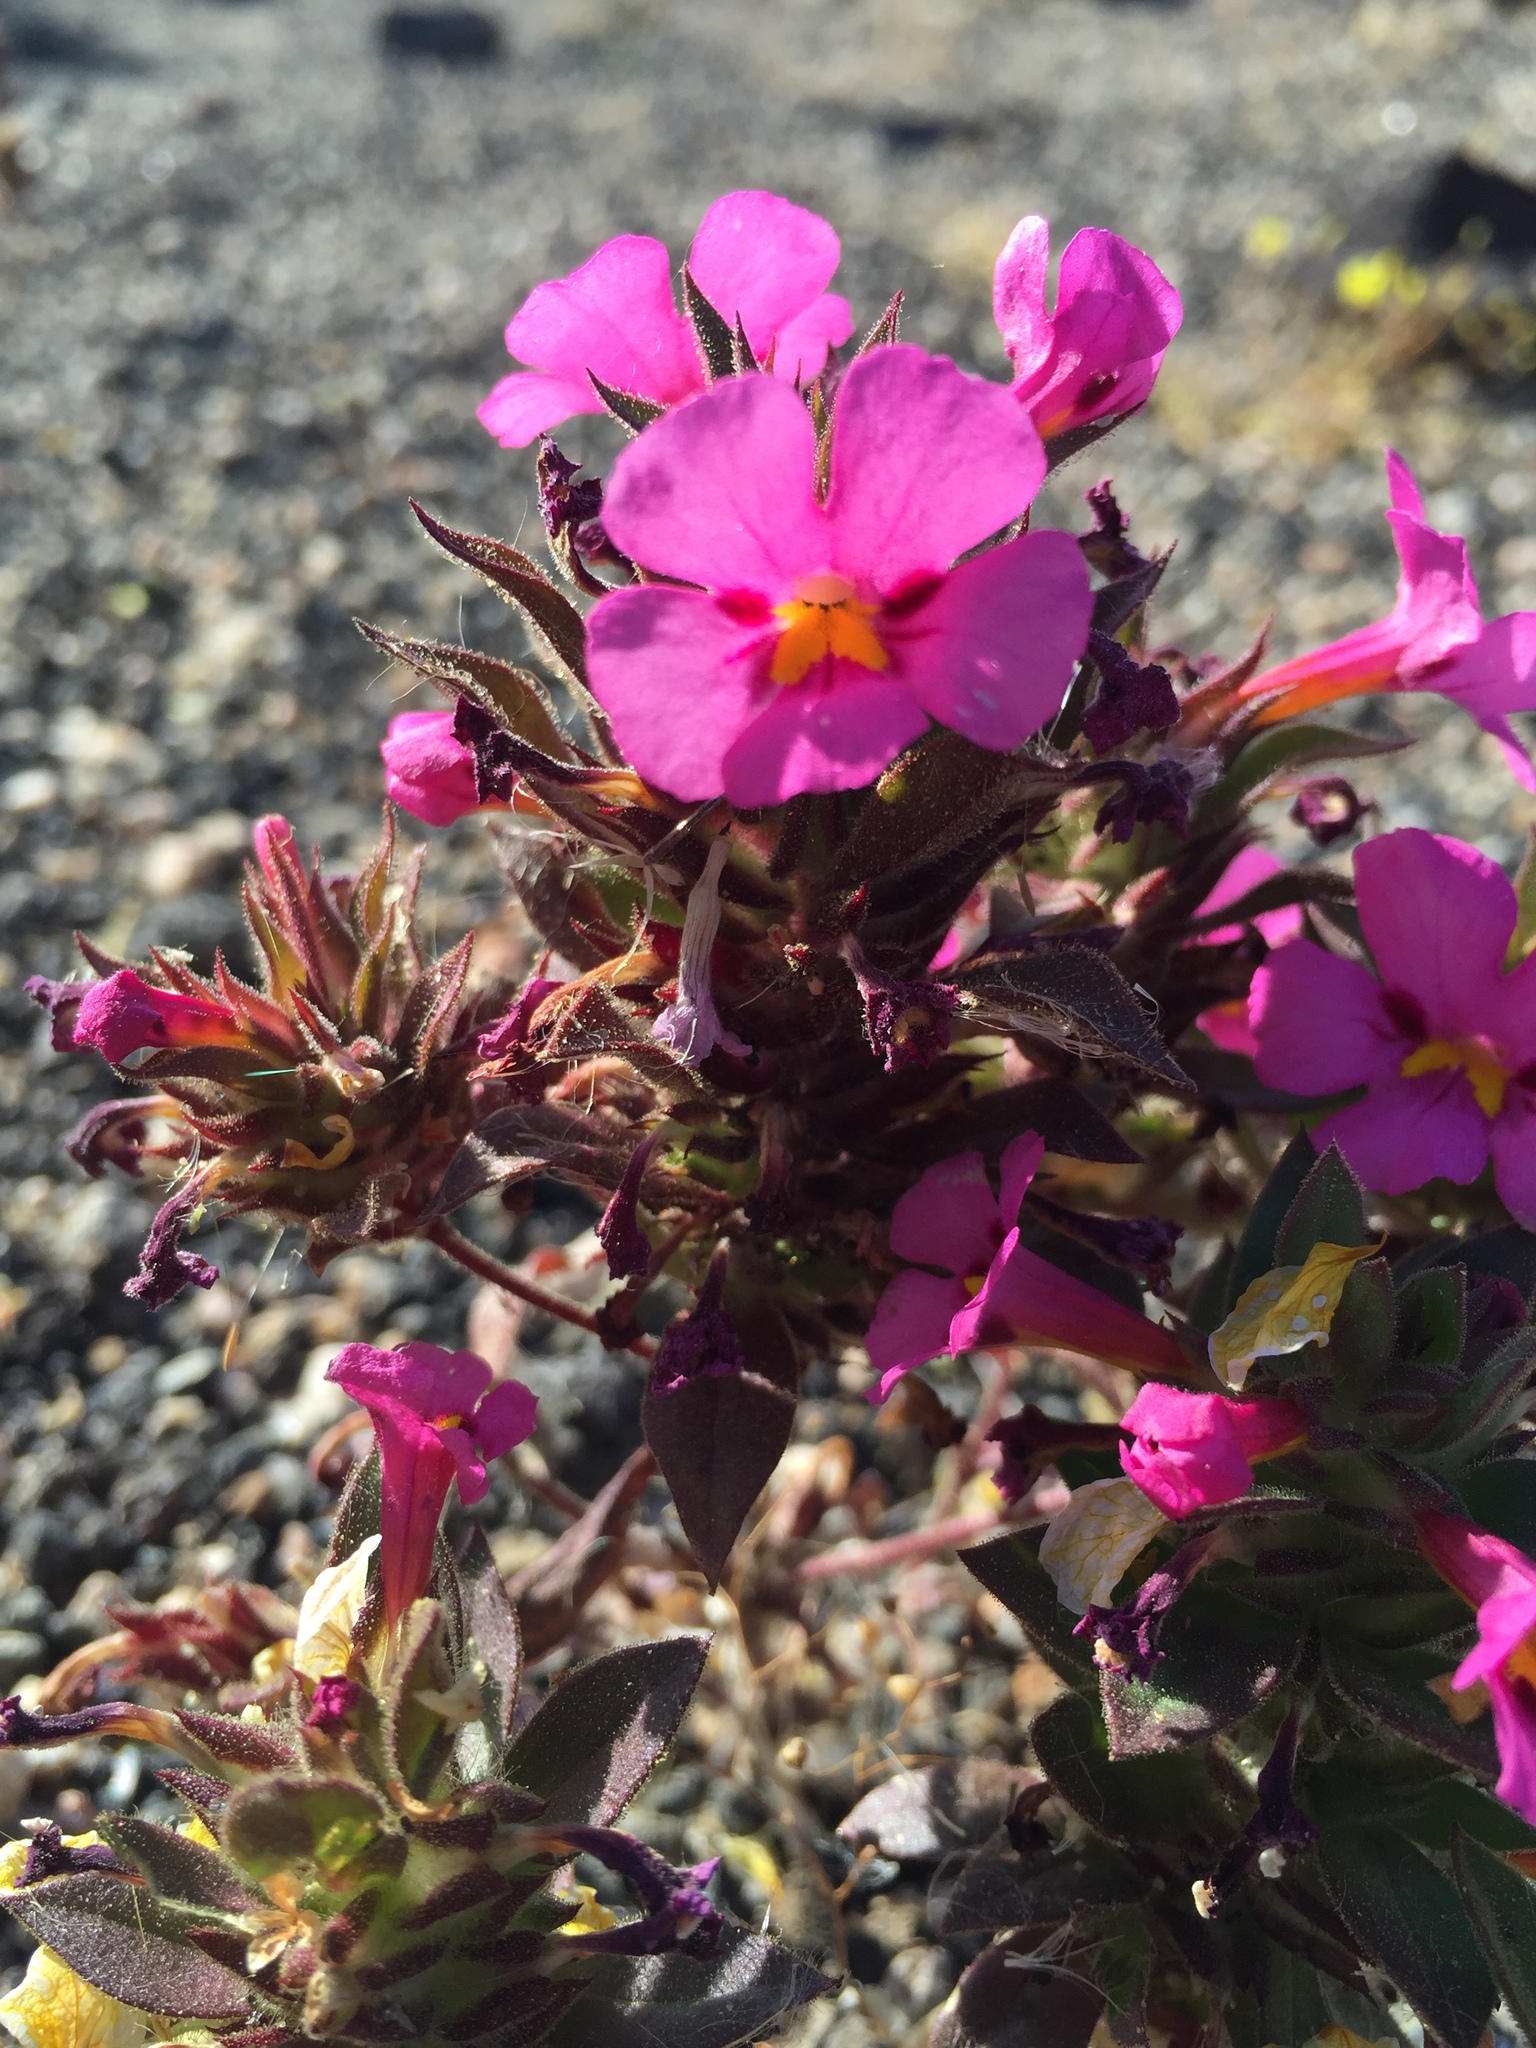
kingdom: Plantae
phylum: Tracheophyta
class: Magnoliopsida
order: Lamiales
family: Phrymaceae
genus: Diplacus
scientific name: Diplacus bigelovii
